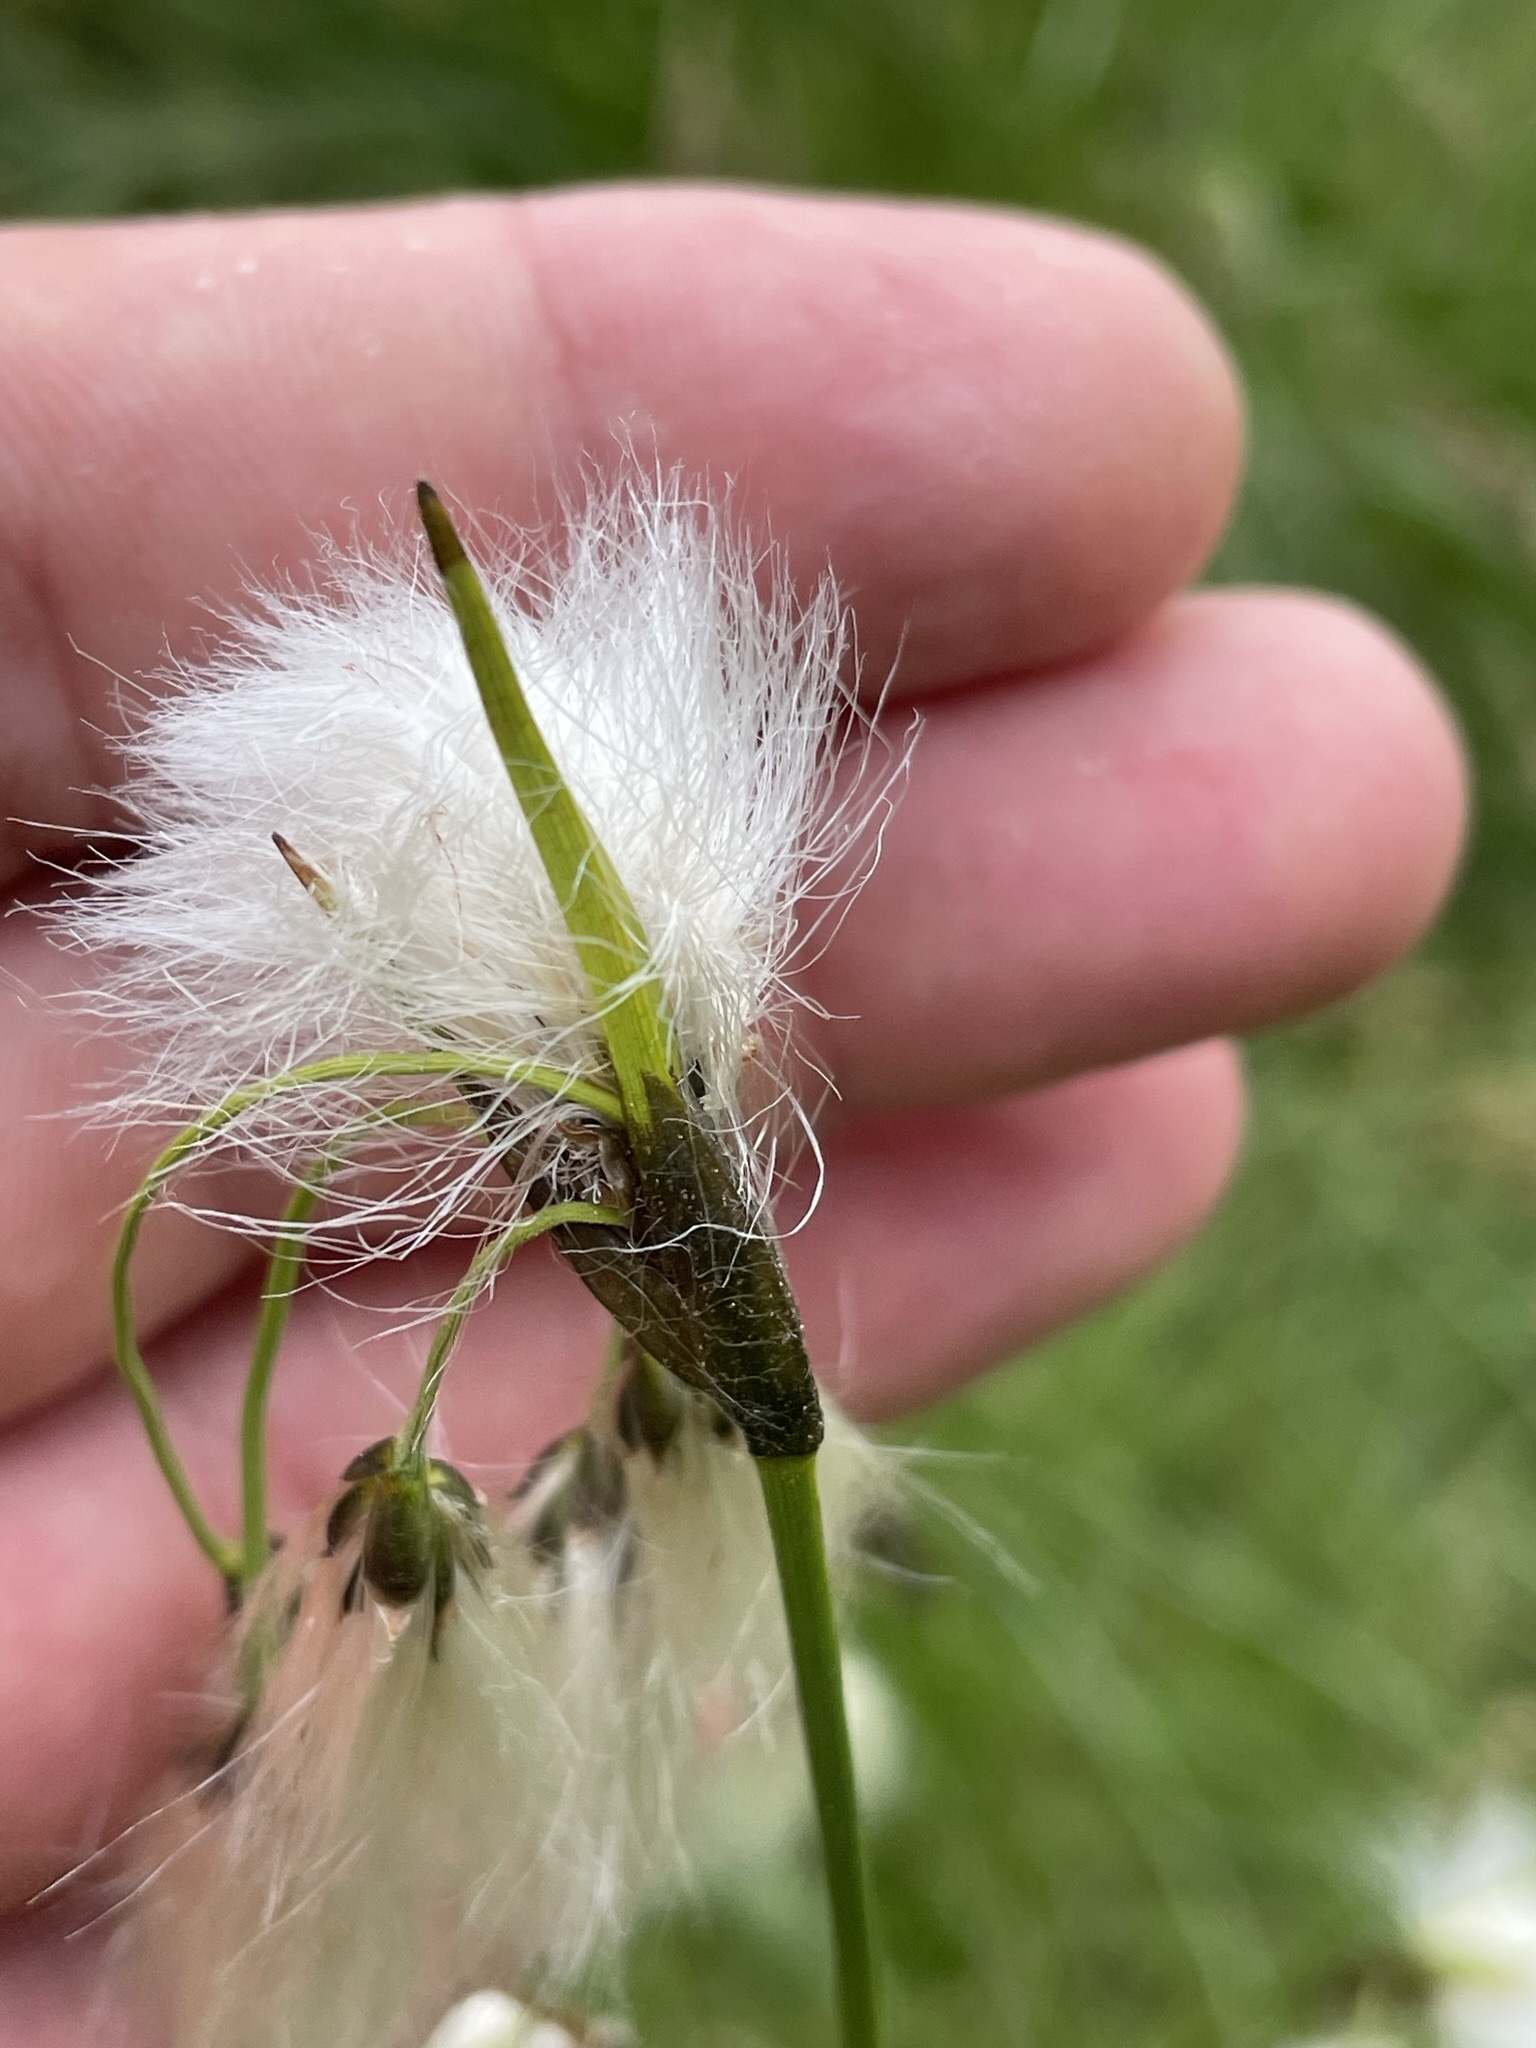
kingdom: Plantae
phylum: Tracheophyta
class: Liliopsida
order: Poales
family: Cyperaceae
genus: Eriophorum
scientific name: Eriophorum latifolium
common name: Broad-leaved cottongrass
